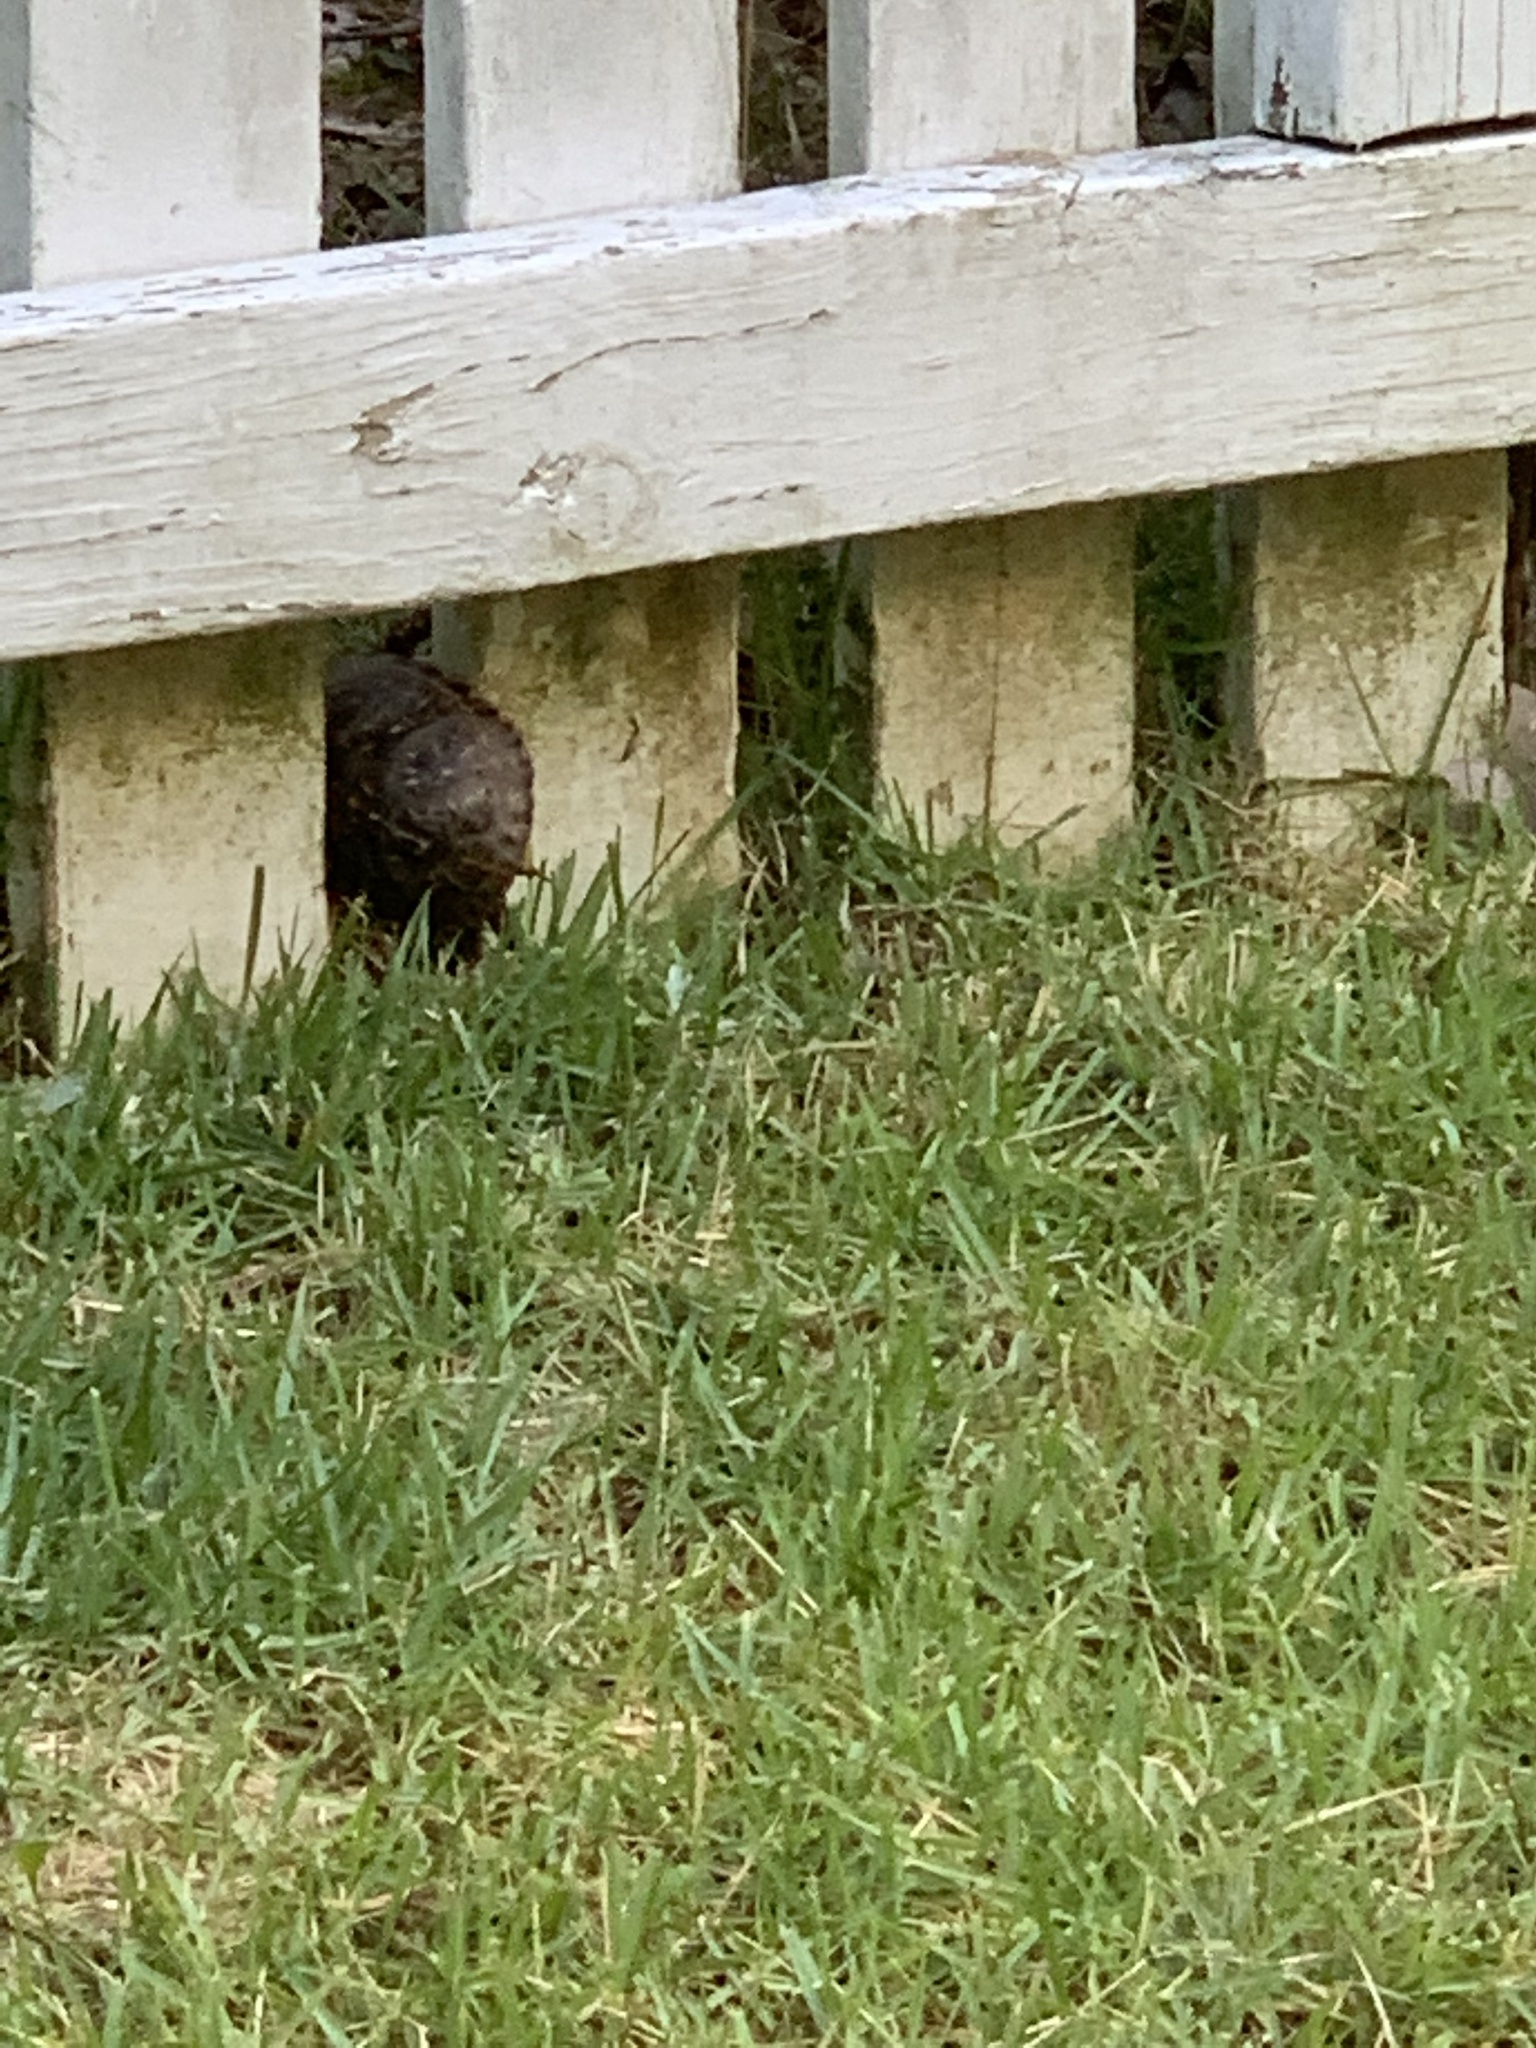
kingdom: Animalia
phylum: Chordata
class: Testudines
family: Emydidae
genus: Terrapene
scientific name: Terrapene carolina
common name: Common box turtle
